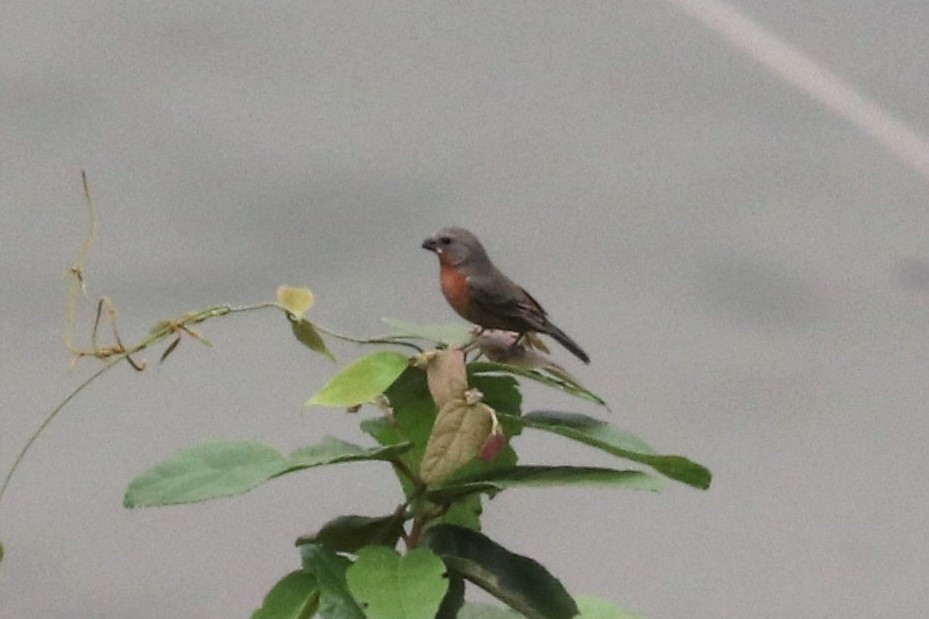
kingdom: Animalia
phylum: Chordata
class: Aves
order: Passeriformes
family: Thraupidae
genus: Sporophila
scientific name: Sporophila minuta
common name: Ruddy-breasted seedeater
